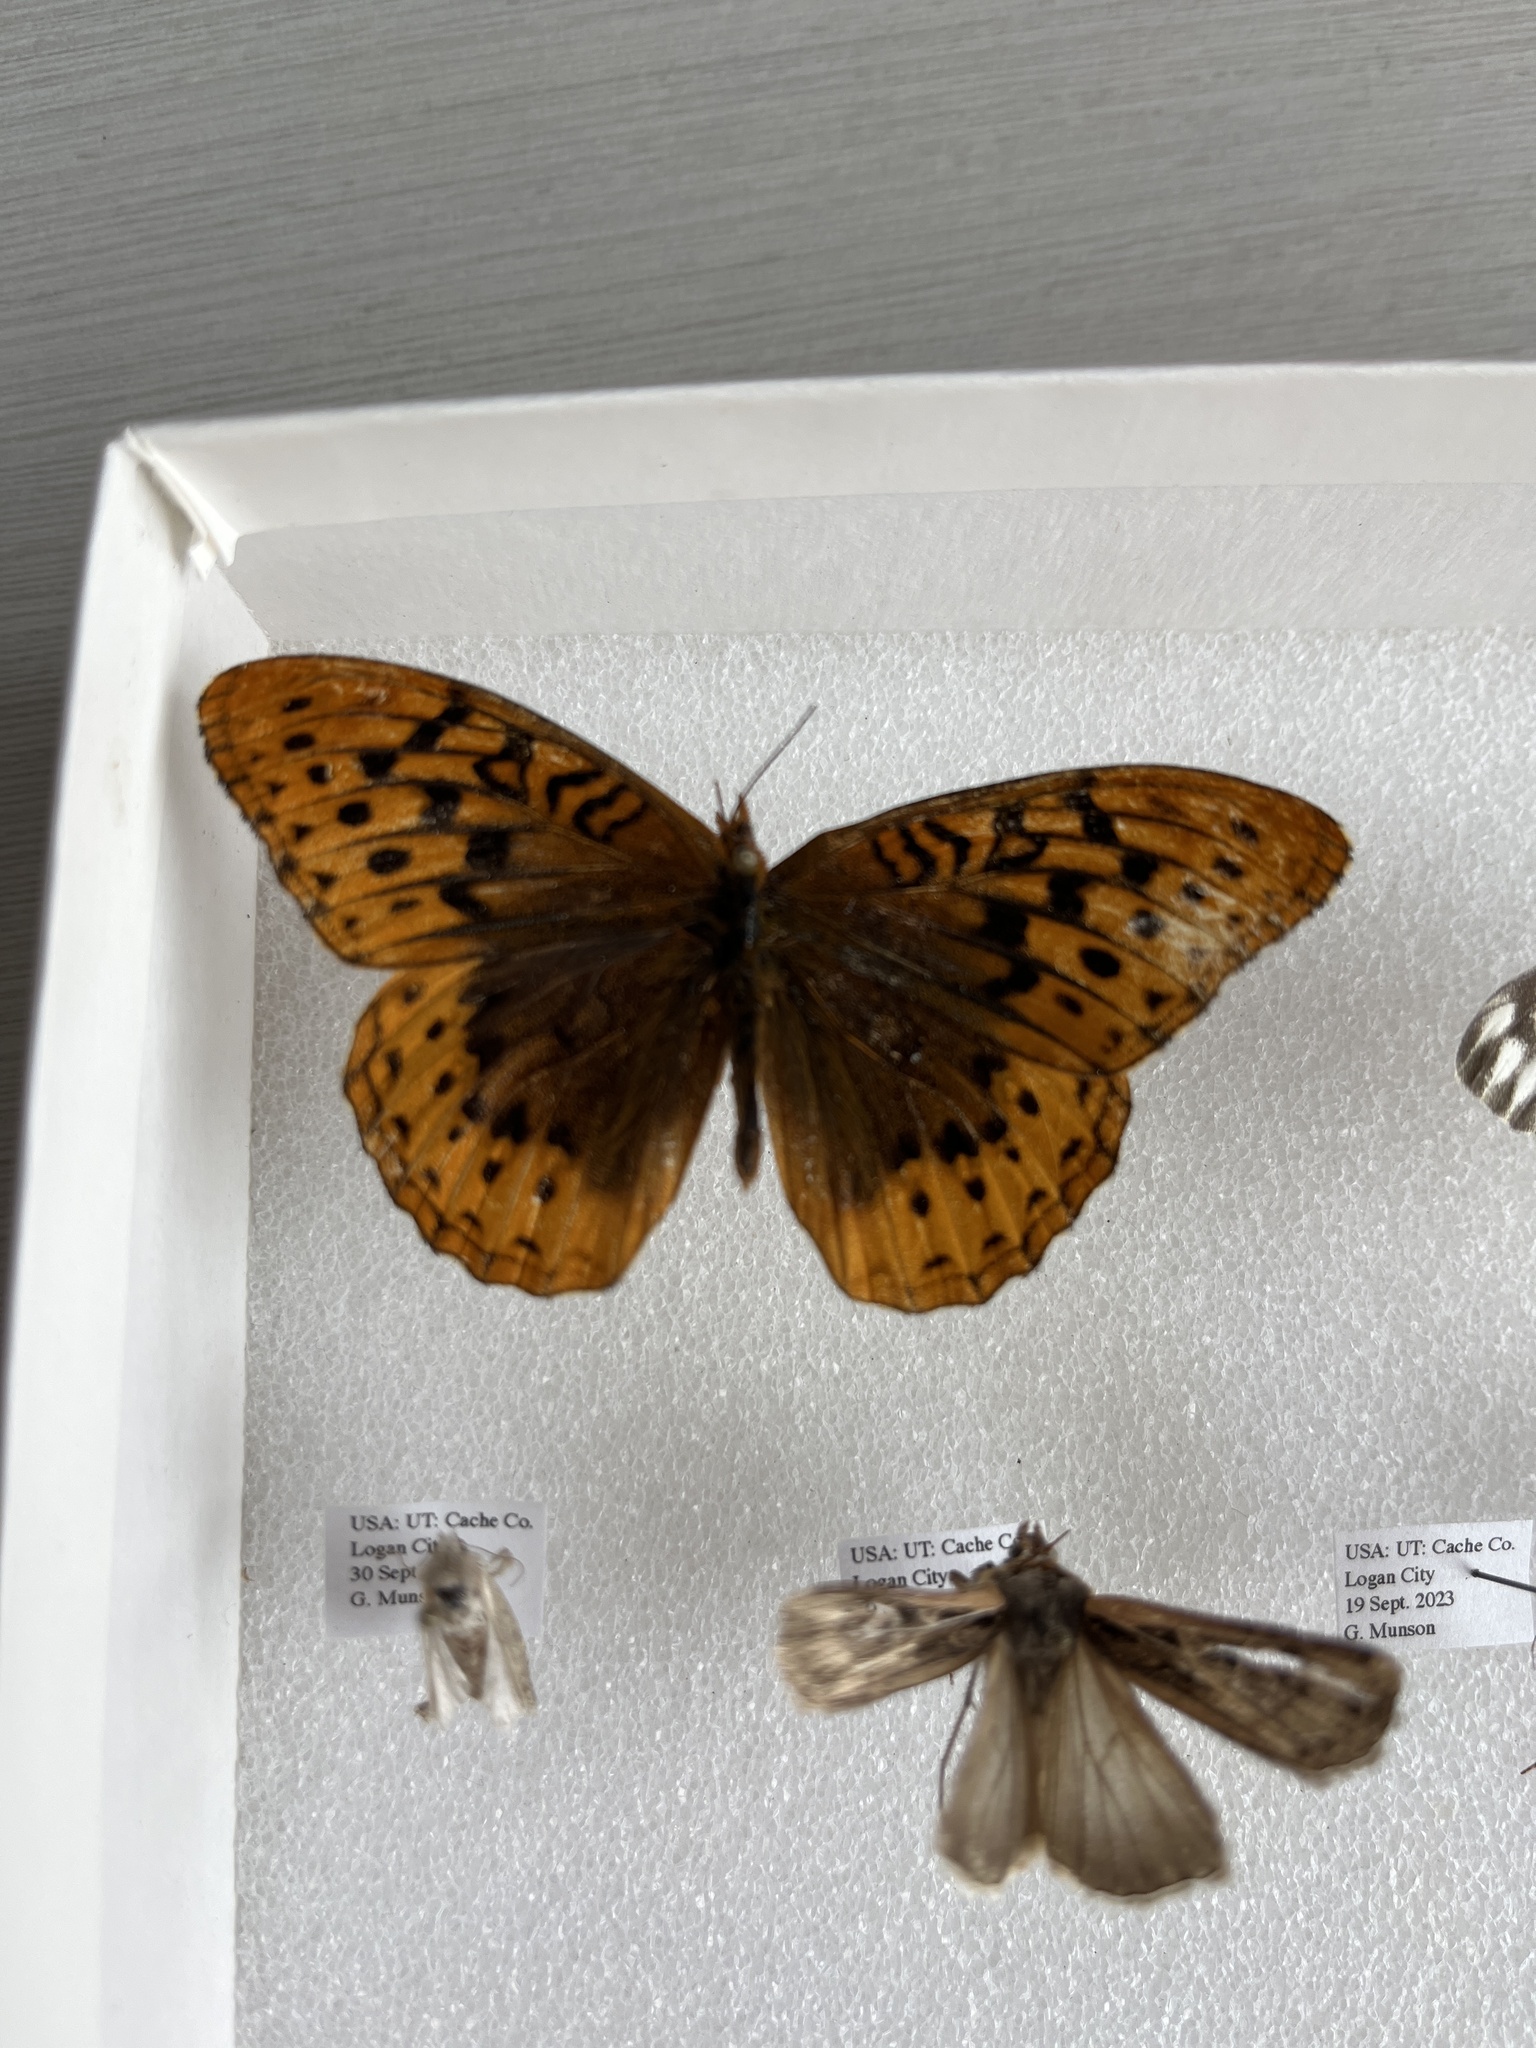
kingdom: Animalia
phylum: Arthropoda
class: Insecta
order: Lepidoptera
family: Nymphalidae
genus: Speyeria
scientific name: Speyeria cybele
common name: Great spangled fritillary
